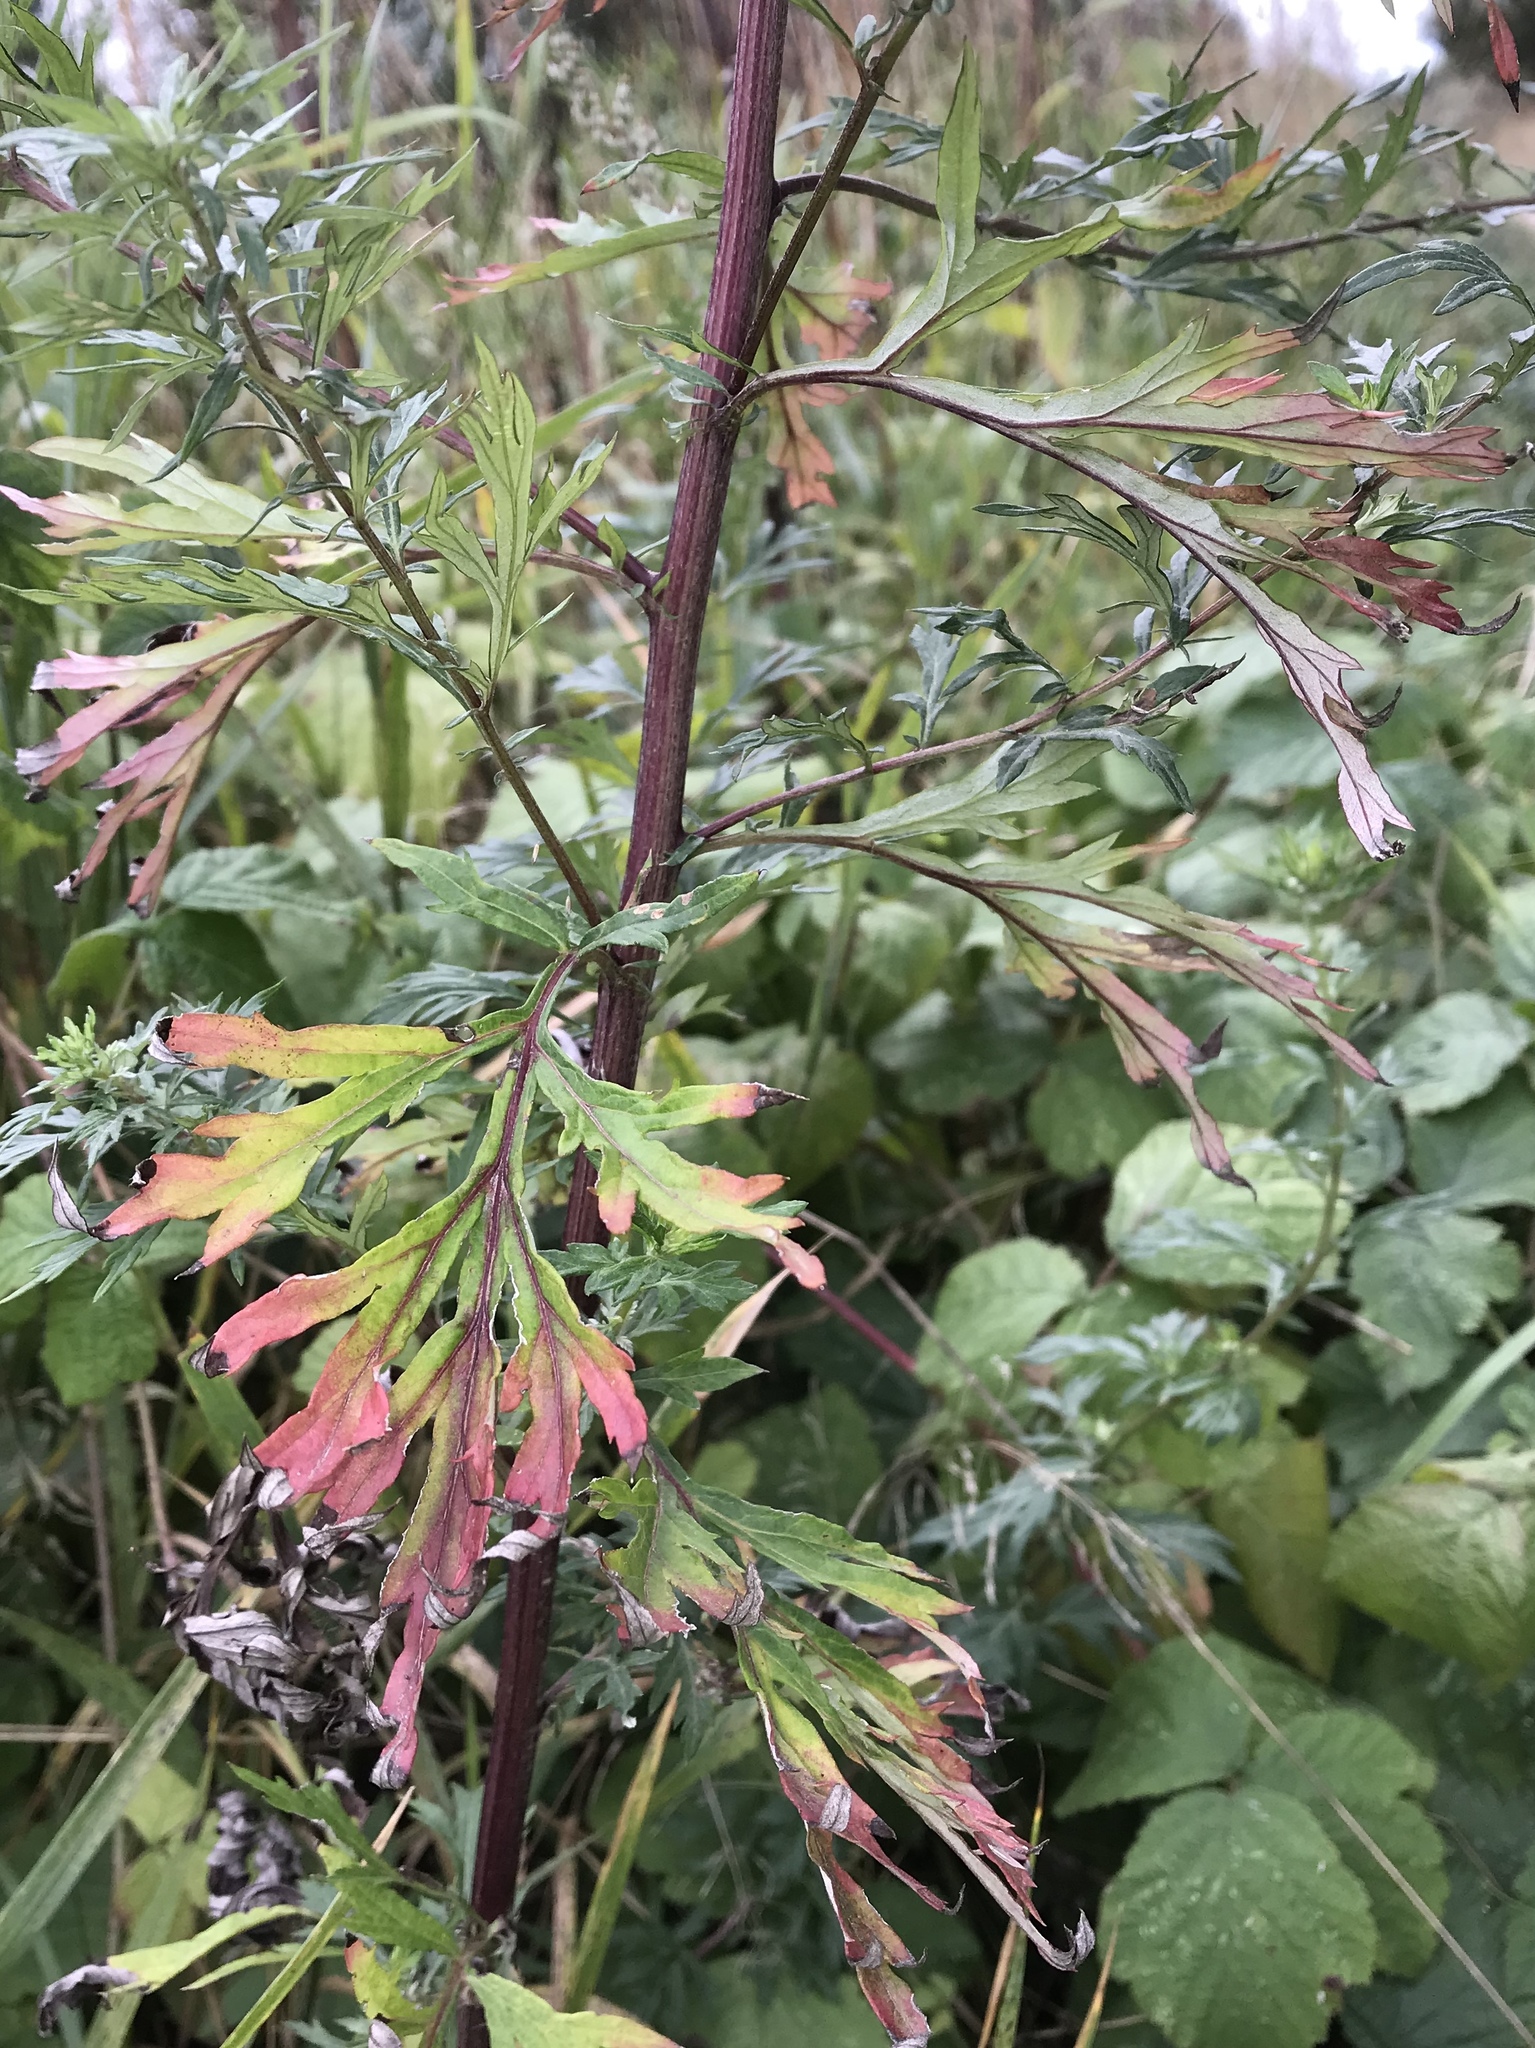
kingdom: Plantae
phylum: Tracheophyta
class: Magnoliopsida
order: Asterales
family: Asteraceae
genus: Artemisia
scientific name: Artemisia vulgaris
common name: Mugwort
